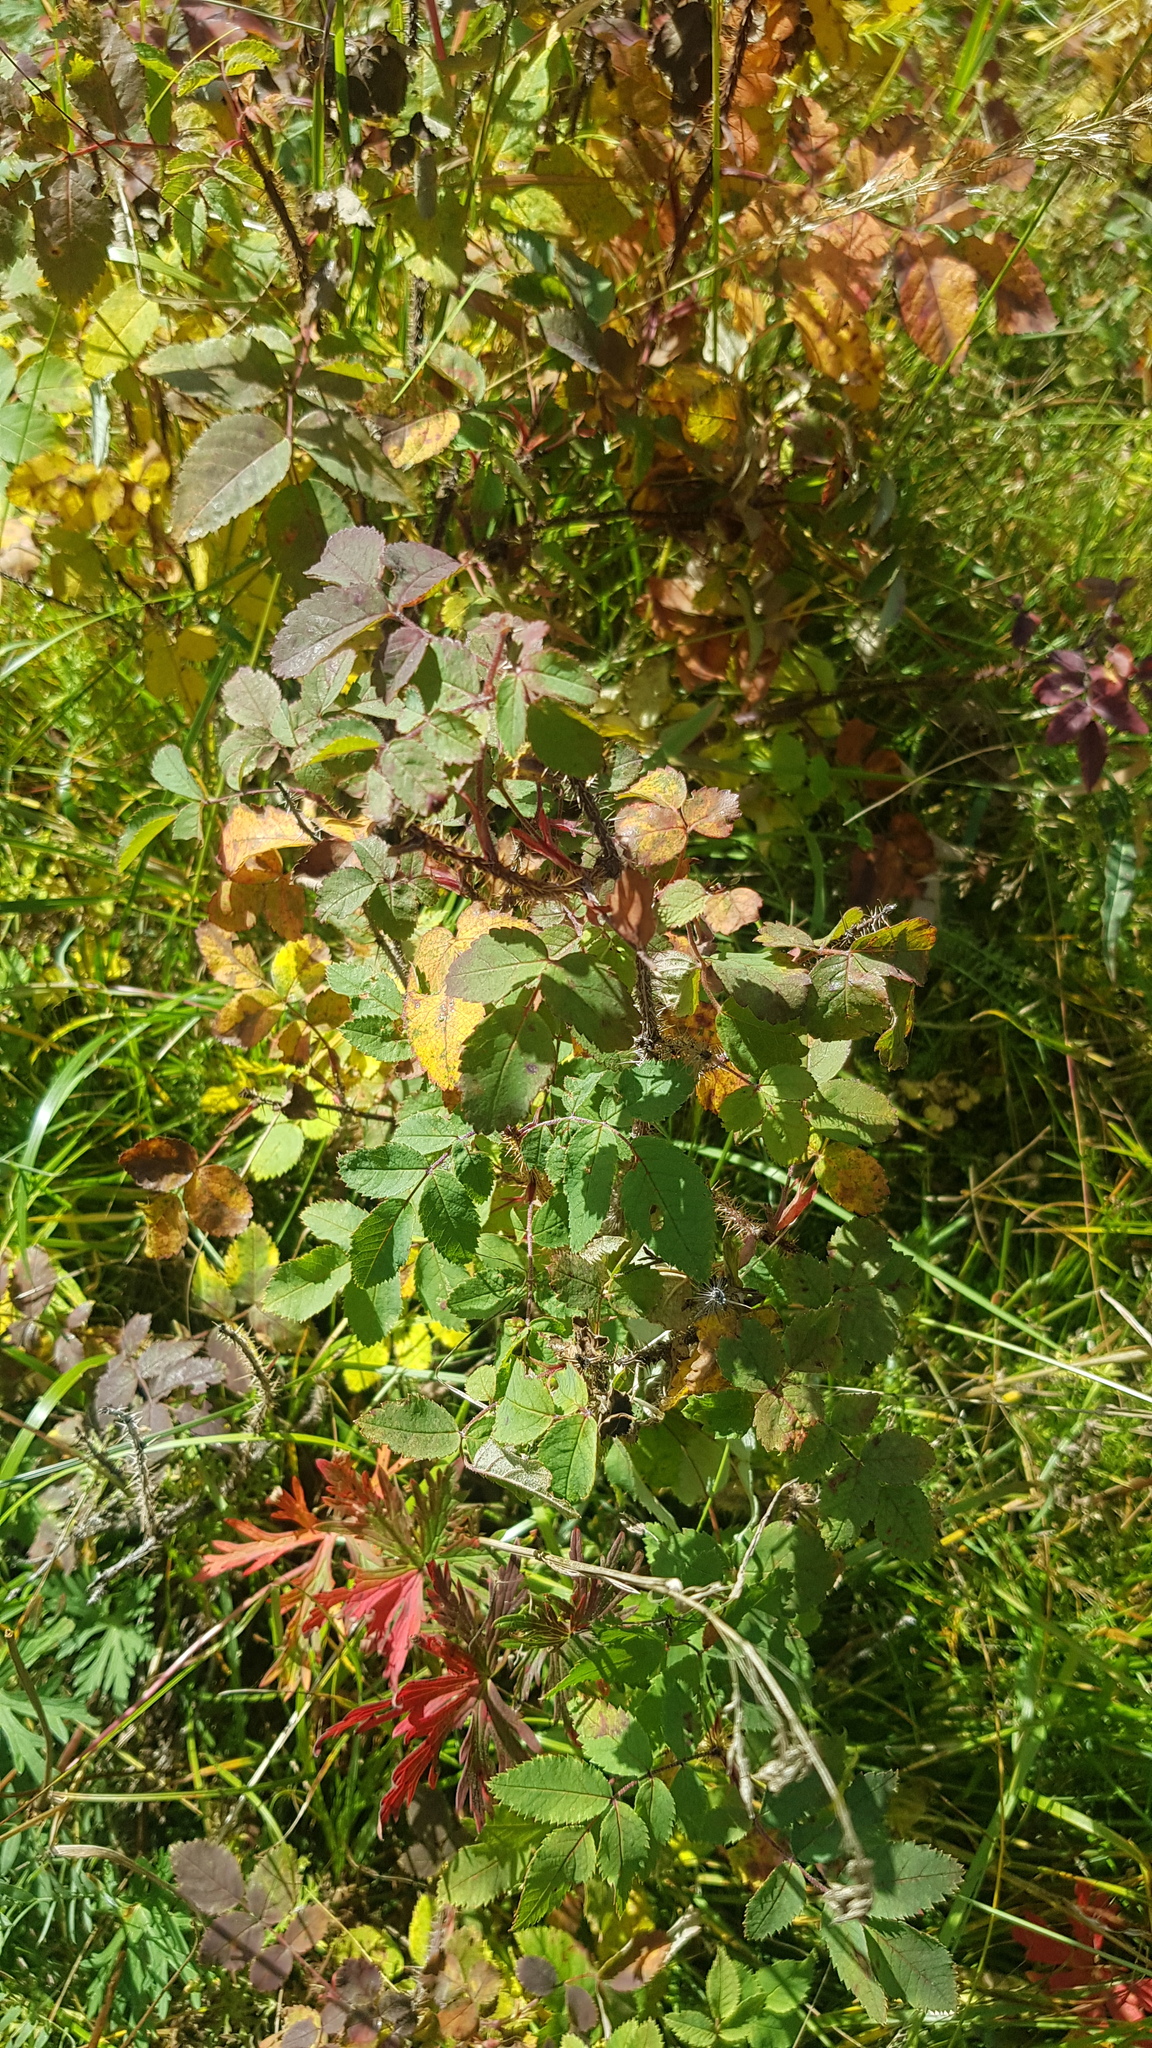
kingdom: Plantae
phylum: Tracheophyta
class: Magnoliopsida
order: Rosales
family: Rosaceae
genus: Rosa
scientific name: Rosa acicularis
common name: Prickly rose
